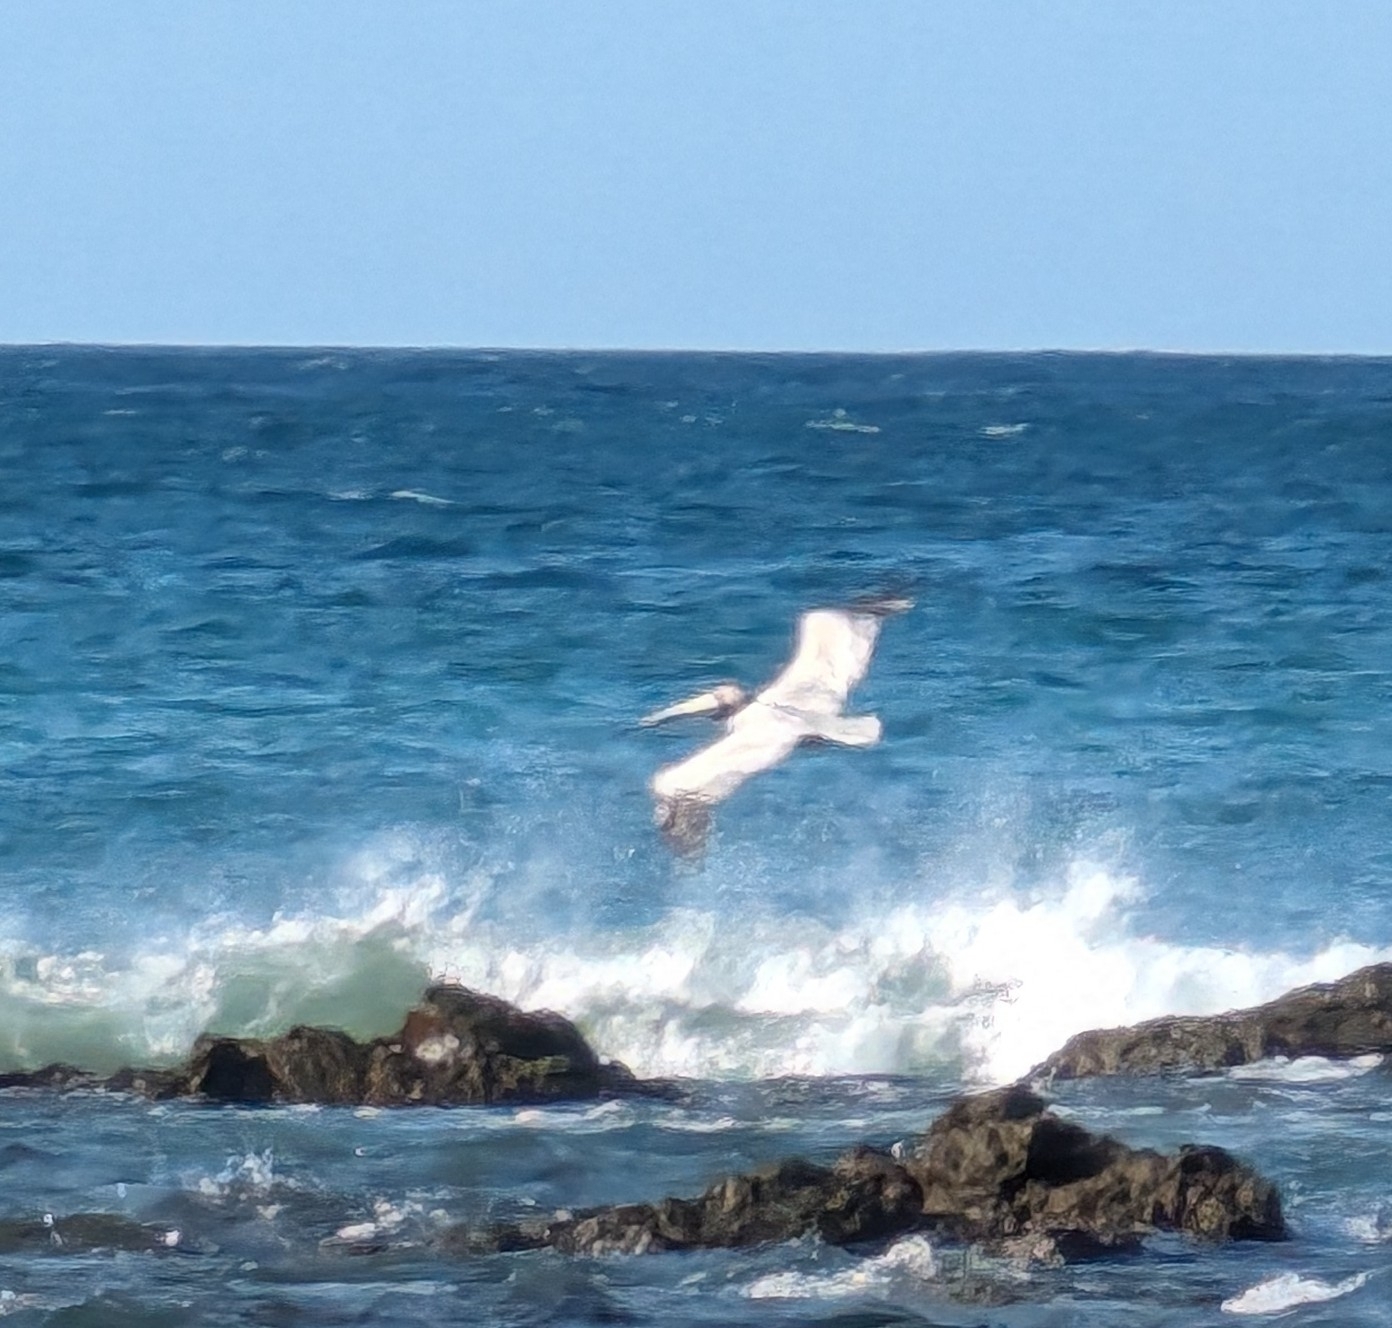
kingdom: Animalia
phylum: Chordata
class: Aves
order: Pelecaniformes
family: Pelecanidae
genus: Pelecanus
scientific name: Pelecanus occidentalis
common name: Brown pelican
